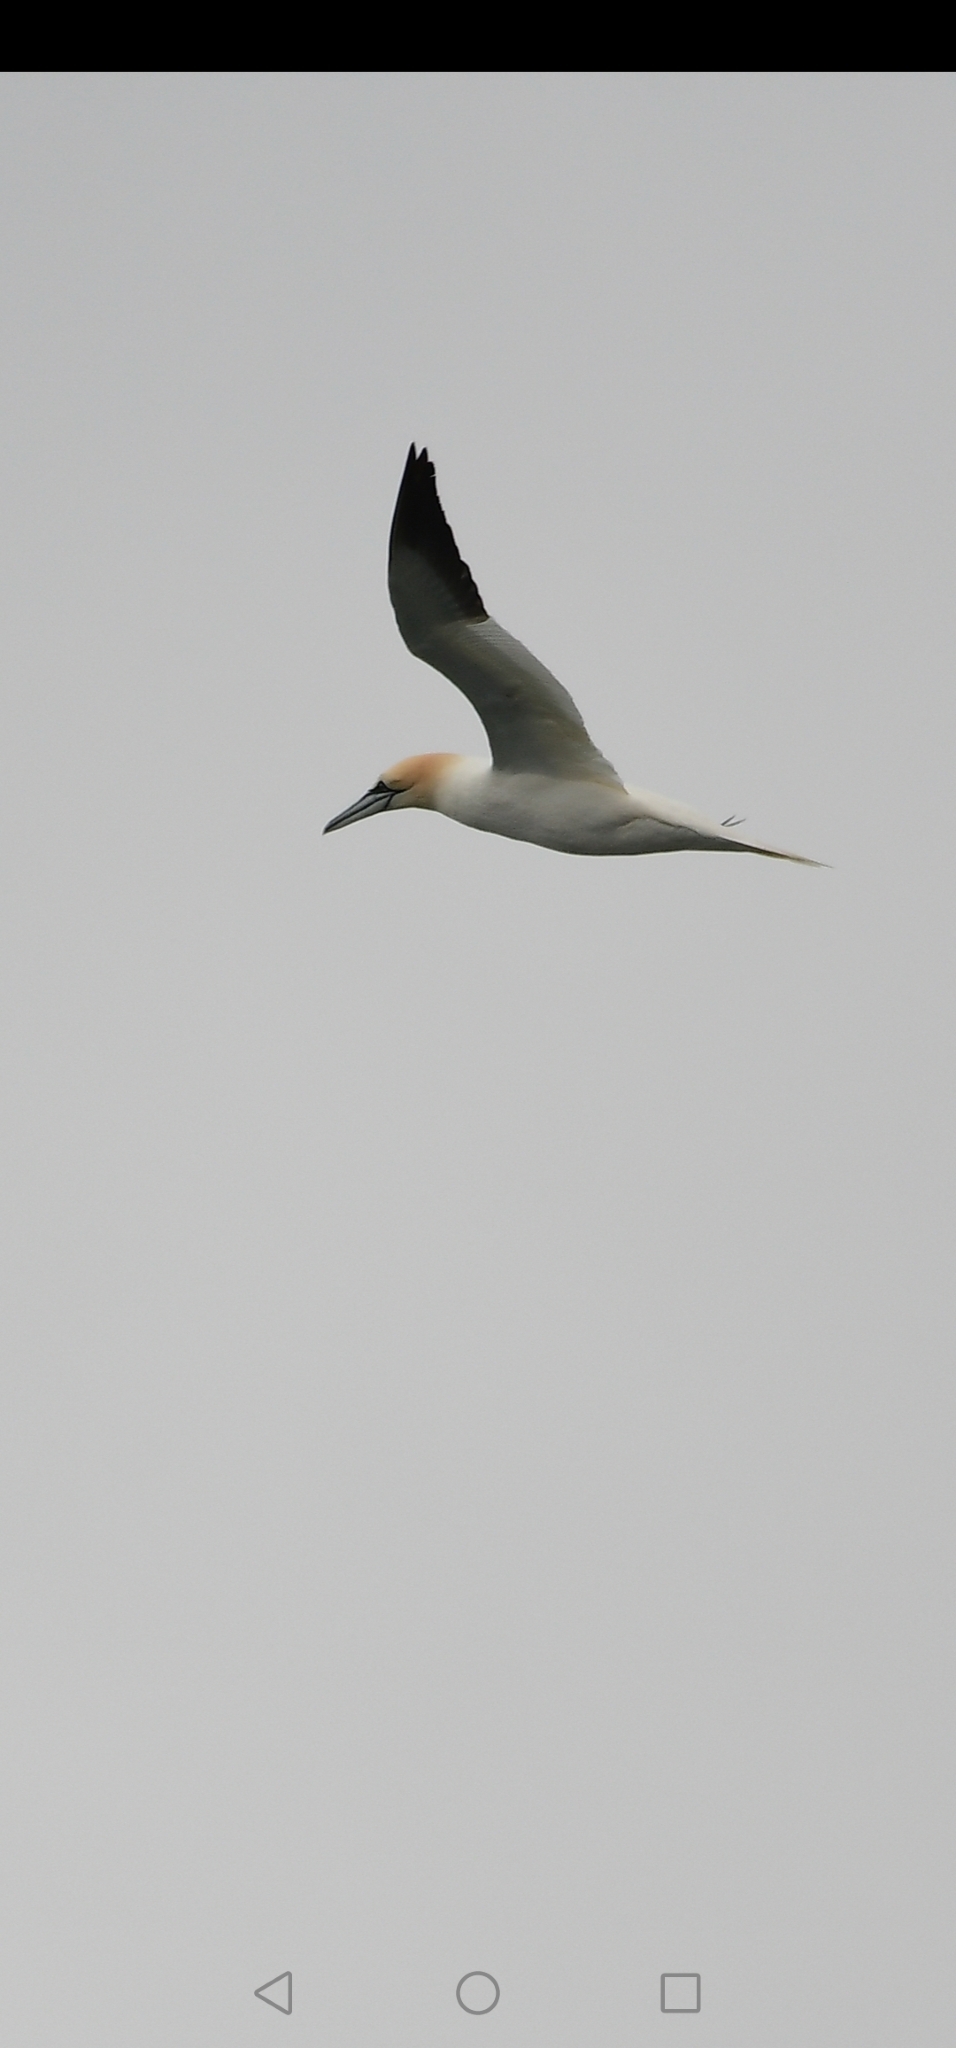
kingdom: Animalia
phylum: Chordata
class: Aves
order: Suliformes
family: Sulidae
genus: Morus
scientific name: Morus bassanus
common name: Northern gannet
